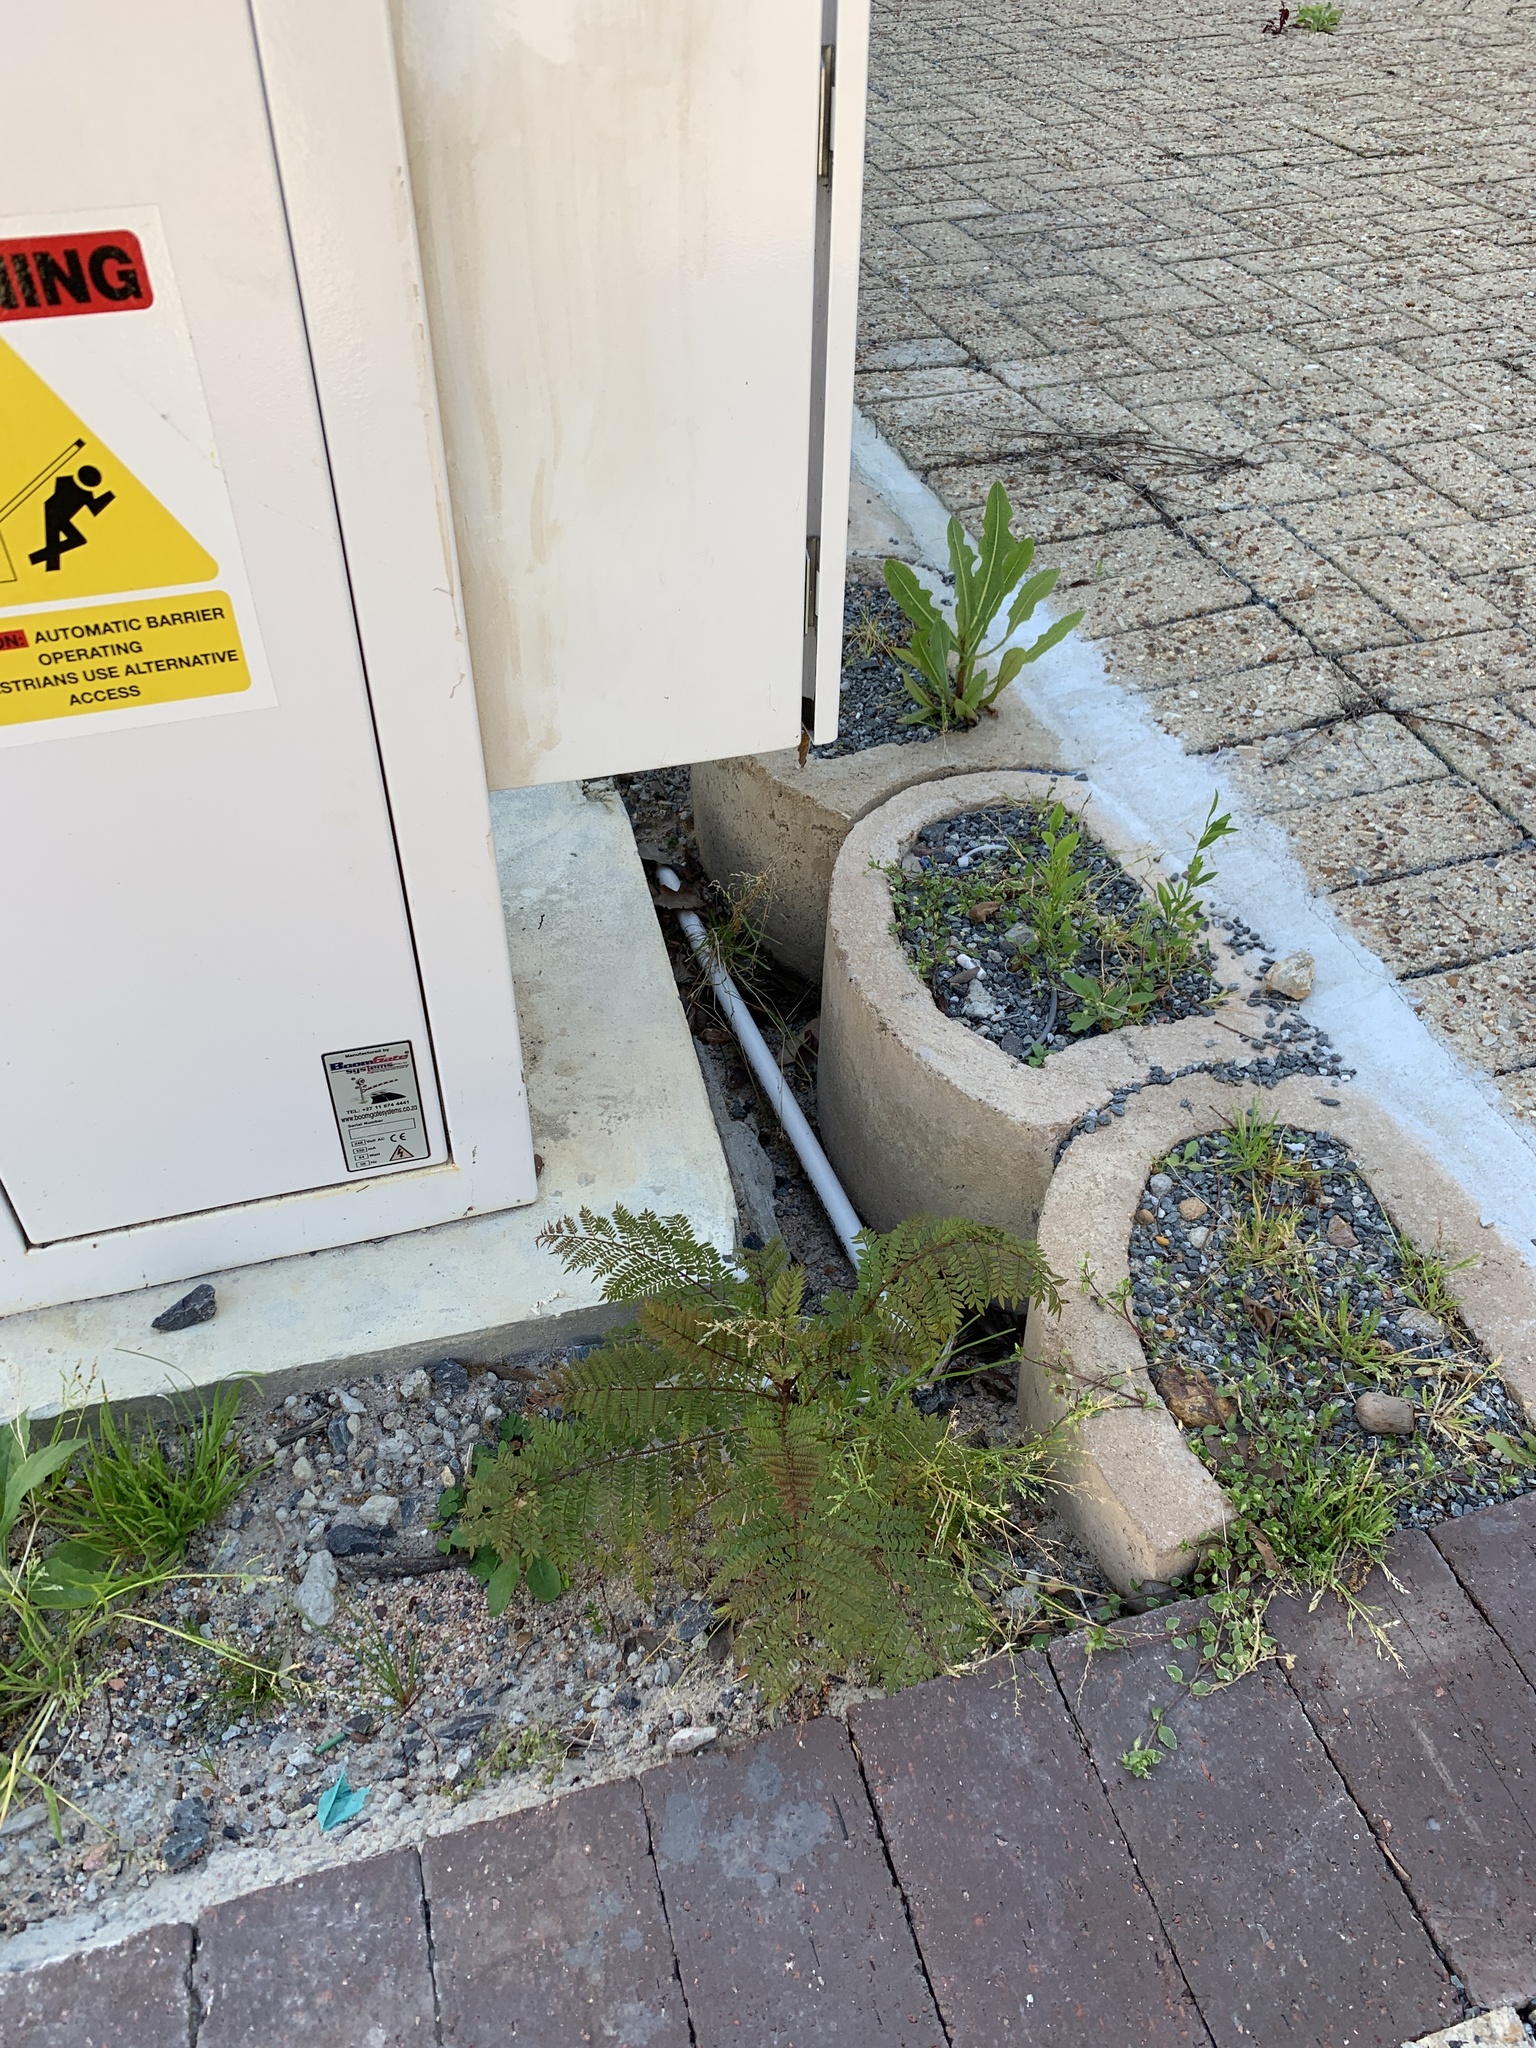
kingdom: Plantae
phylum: Tracheophyta
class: Magnoliopsida
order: Lamiales
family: Bignoniaceae
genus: Jacaranda
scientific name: Jacaranda mimosifolia
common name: Black poui
